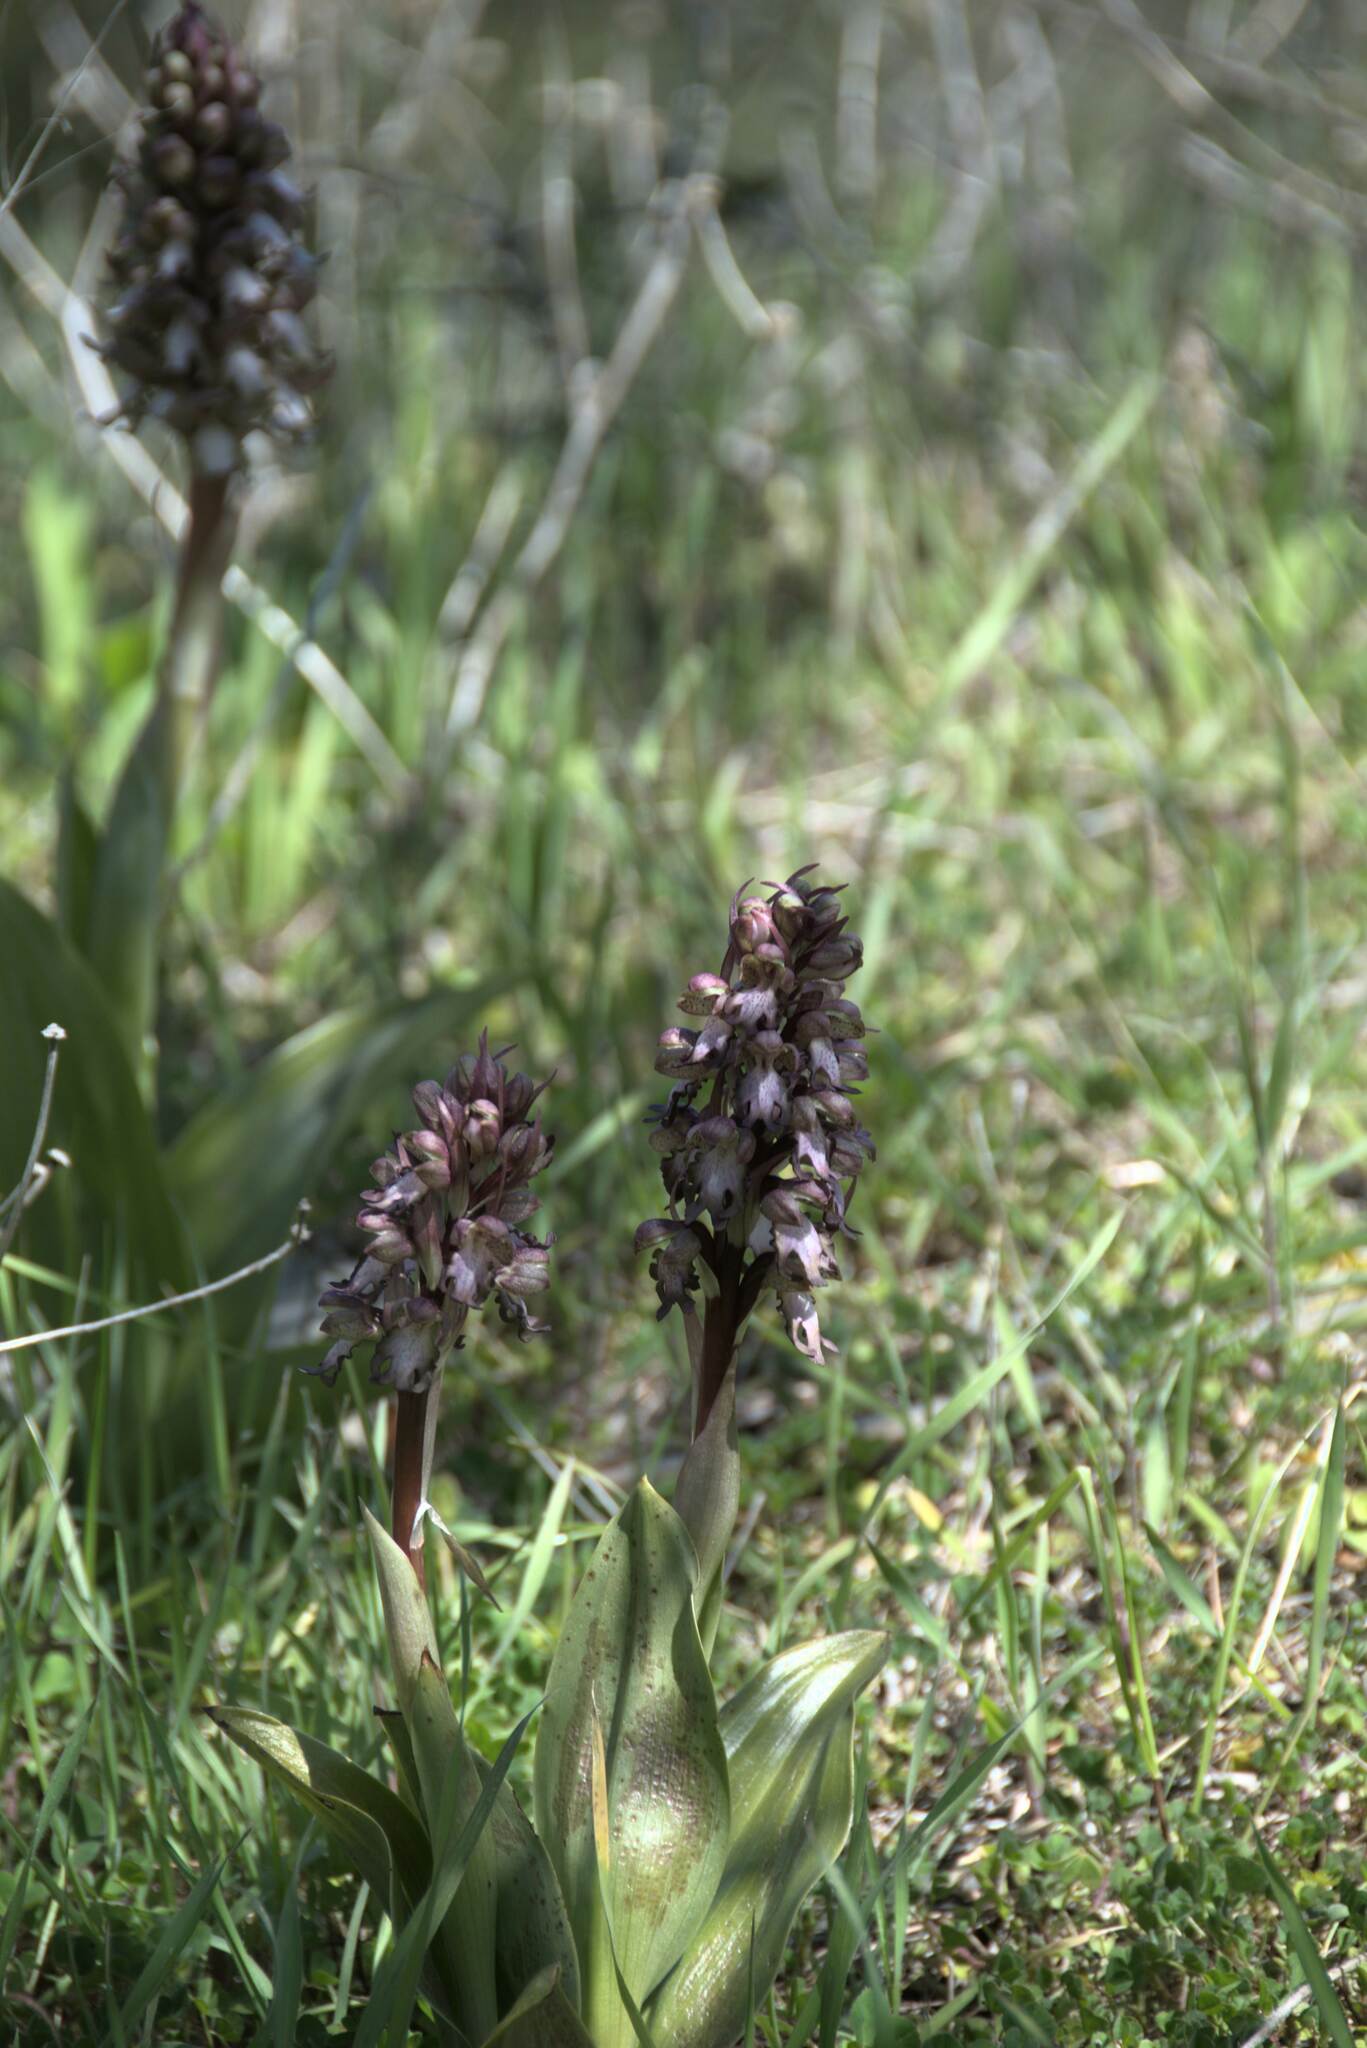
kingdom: Plantae
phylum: Tracheophyta
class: Liliopsida
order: Asparagales
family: Orchidaceae
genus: Himantoglossum
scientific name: Himantoglossum robertianum
